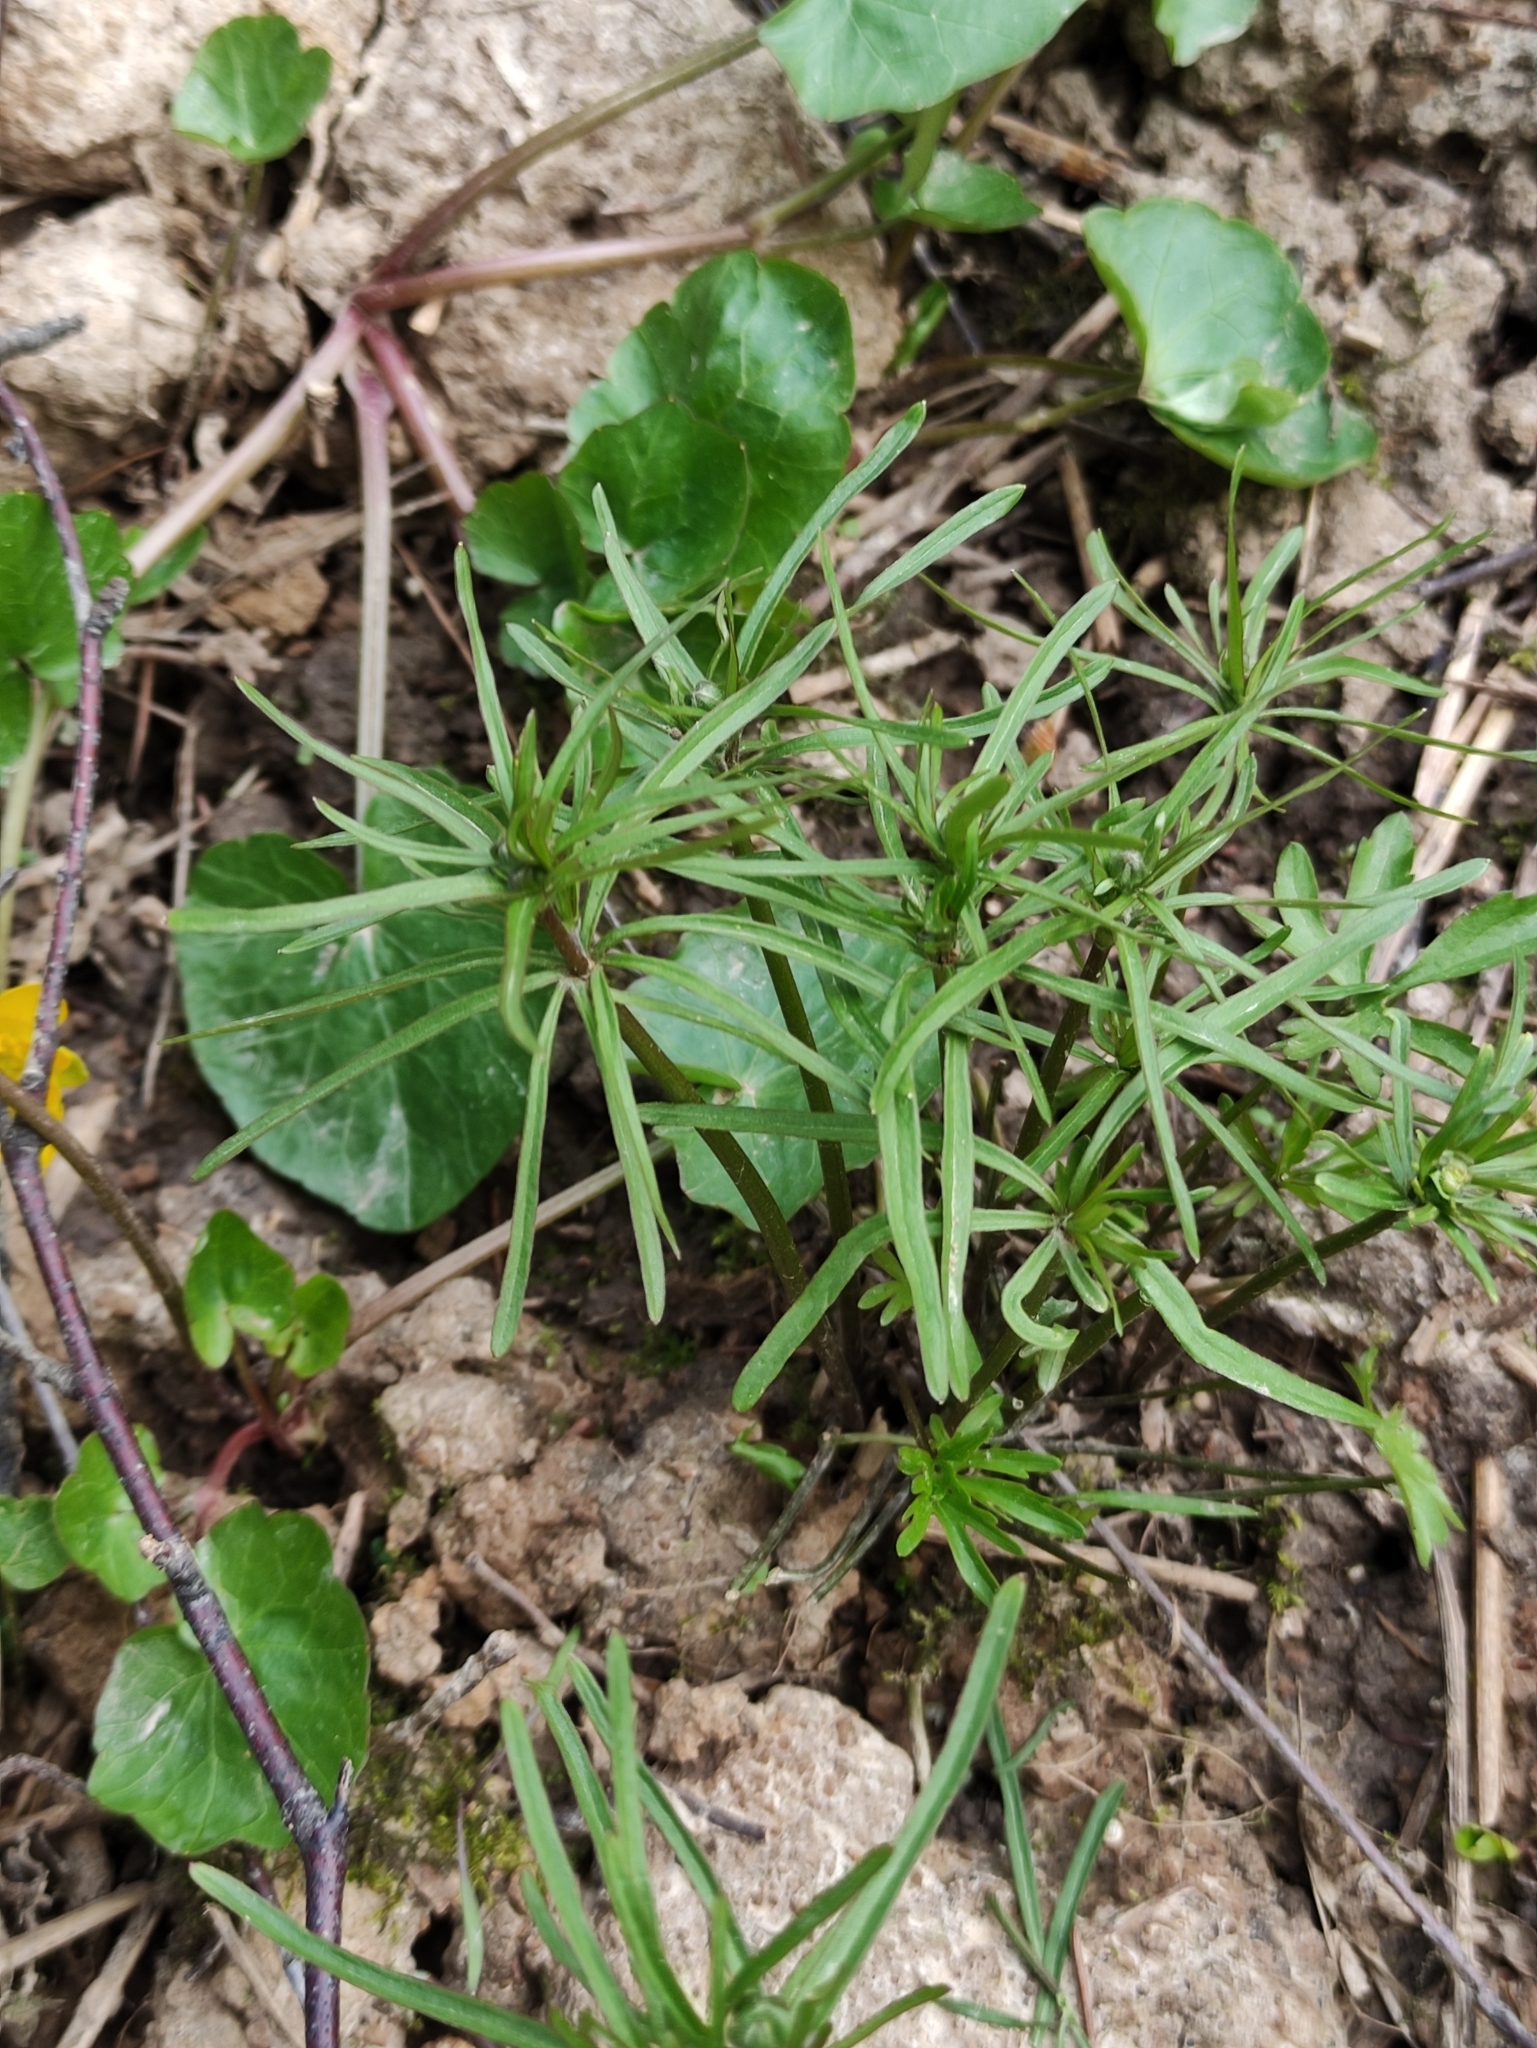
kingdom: Plantae
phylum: Tracheophyta
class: Magnoliopsida
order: Ranunculales
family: Ranunculaceae
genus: Ranunculus
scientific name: Ranunculus auricomus
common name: Goldilocks buttercup
